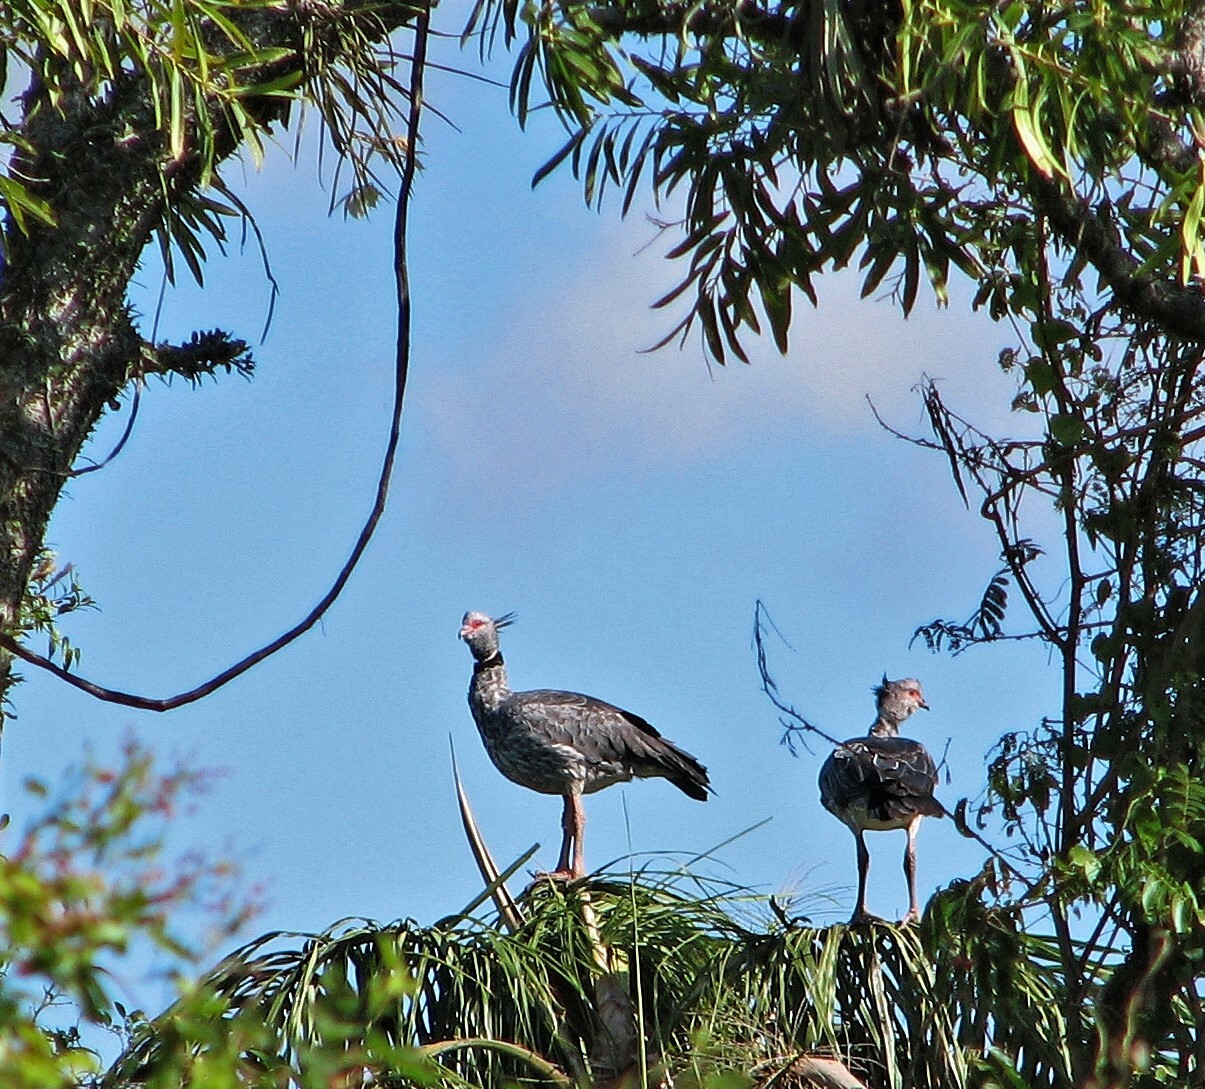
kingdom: Animalia
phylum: Chordata
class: Aves
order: Anseriformes
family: Anhimidae
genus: Chauna
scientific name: Chauna torquata
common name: Southern screamer
